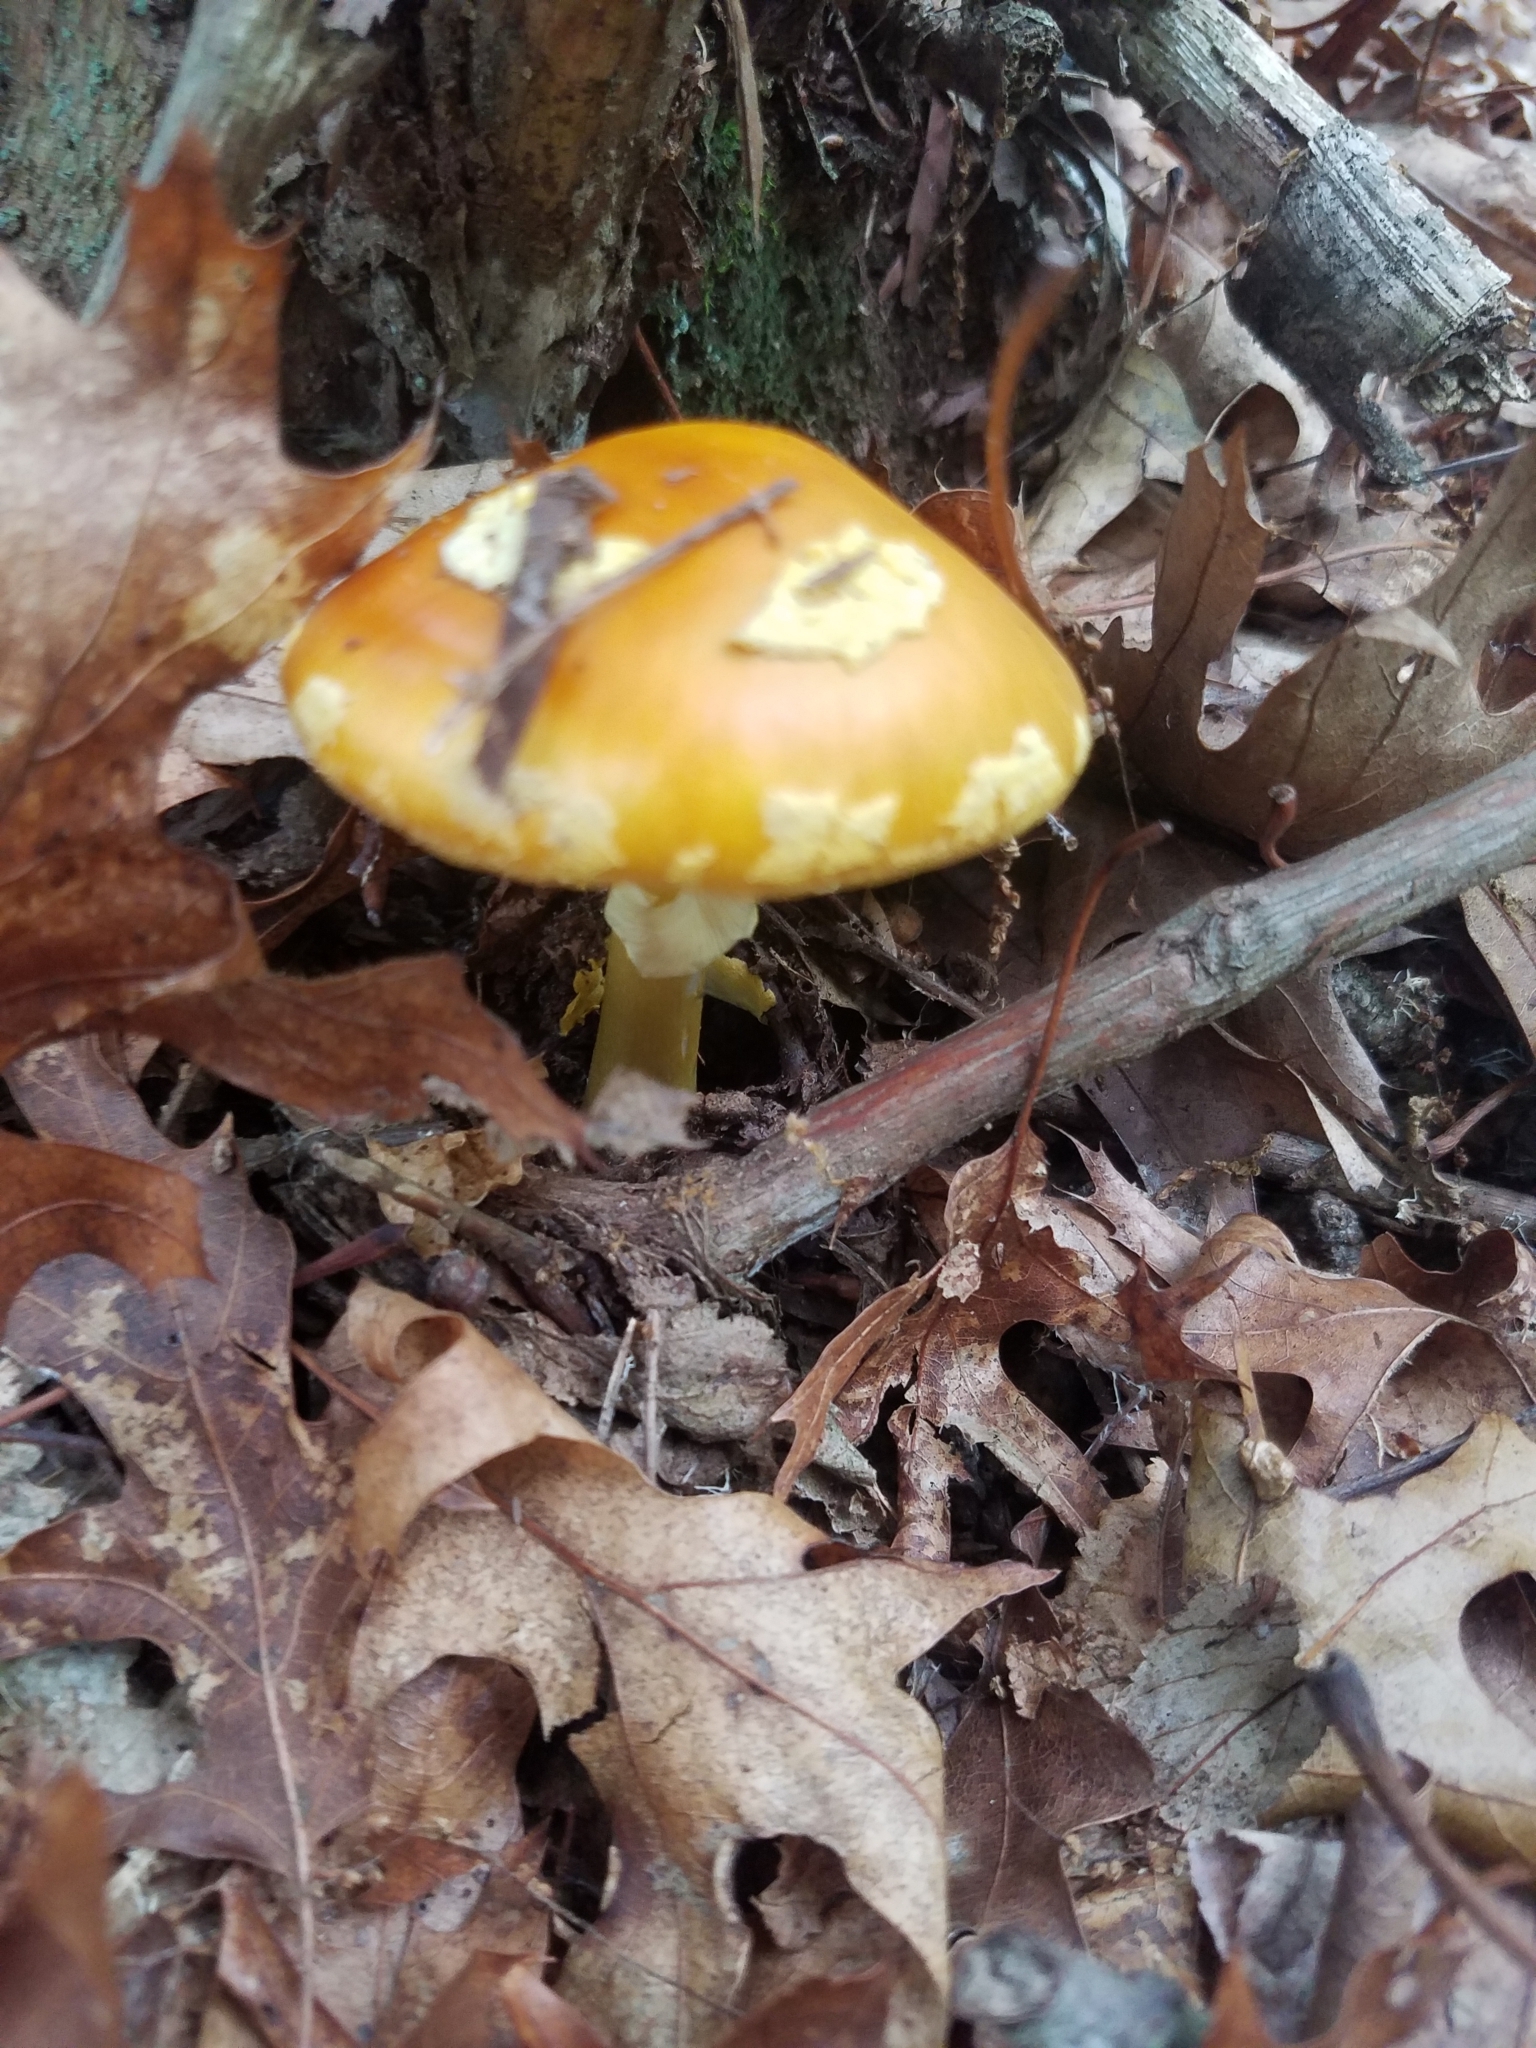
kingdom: Fungi
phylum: Basidiomycota
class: Agaricomycetes
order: Agaricales
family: Amanitaceae
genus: Amanita
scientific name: Amanita flavoconia
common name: Yellow patches
